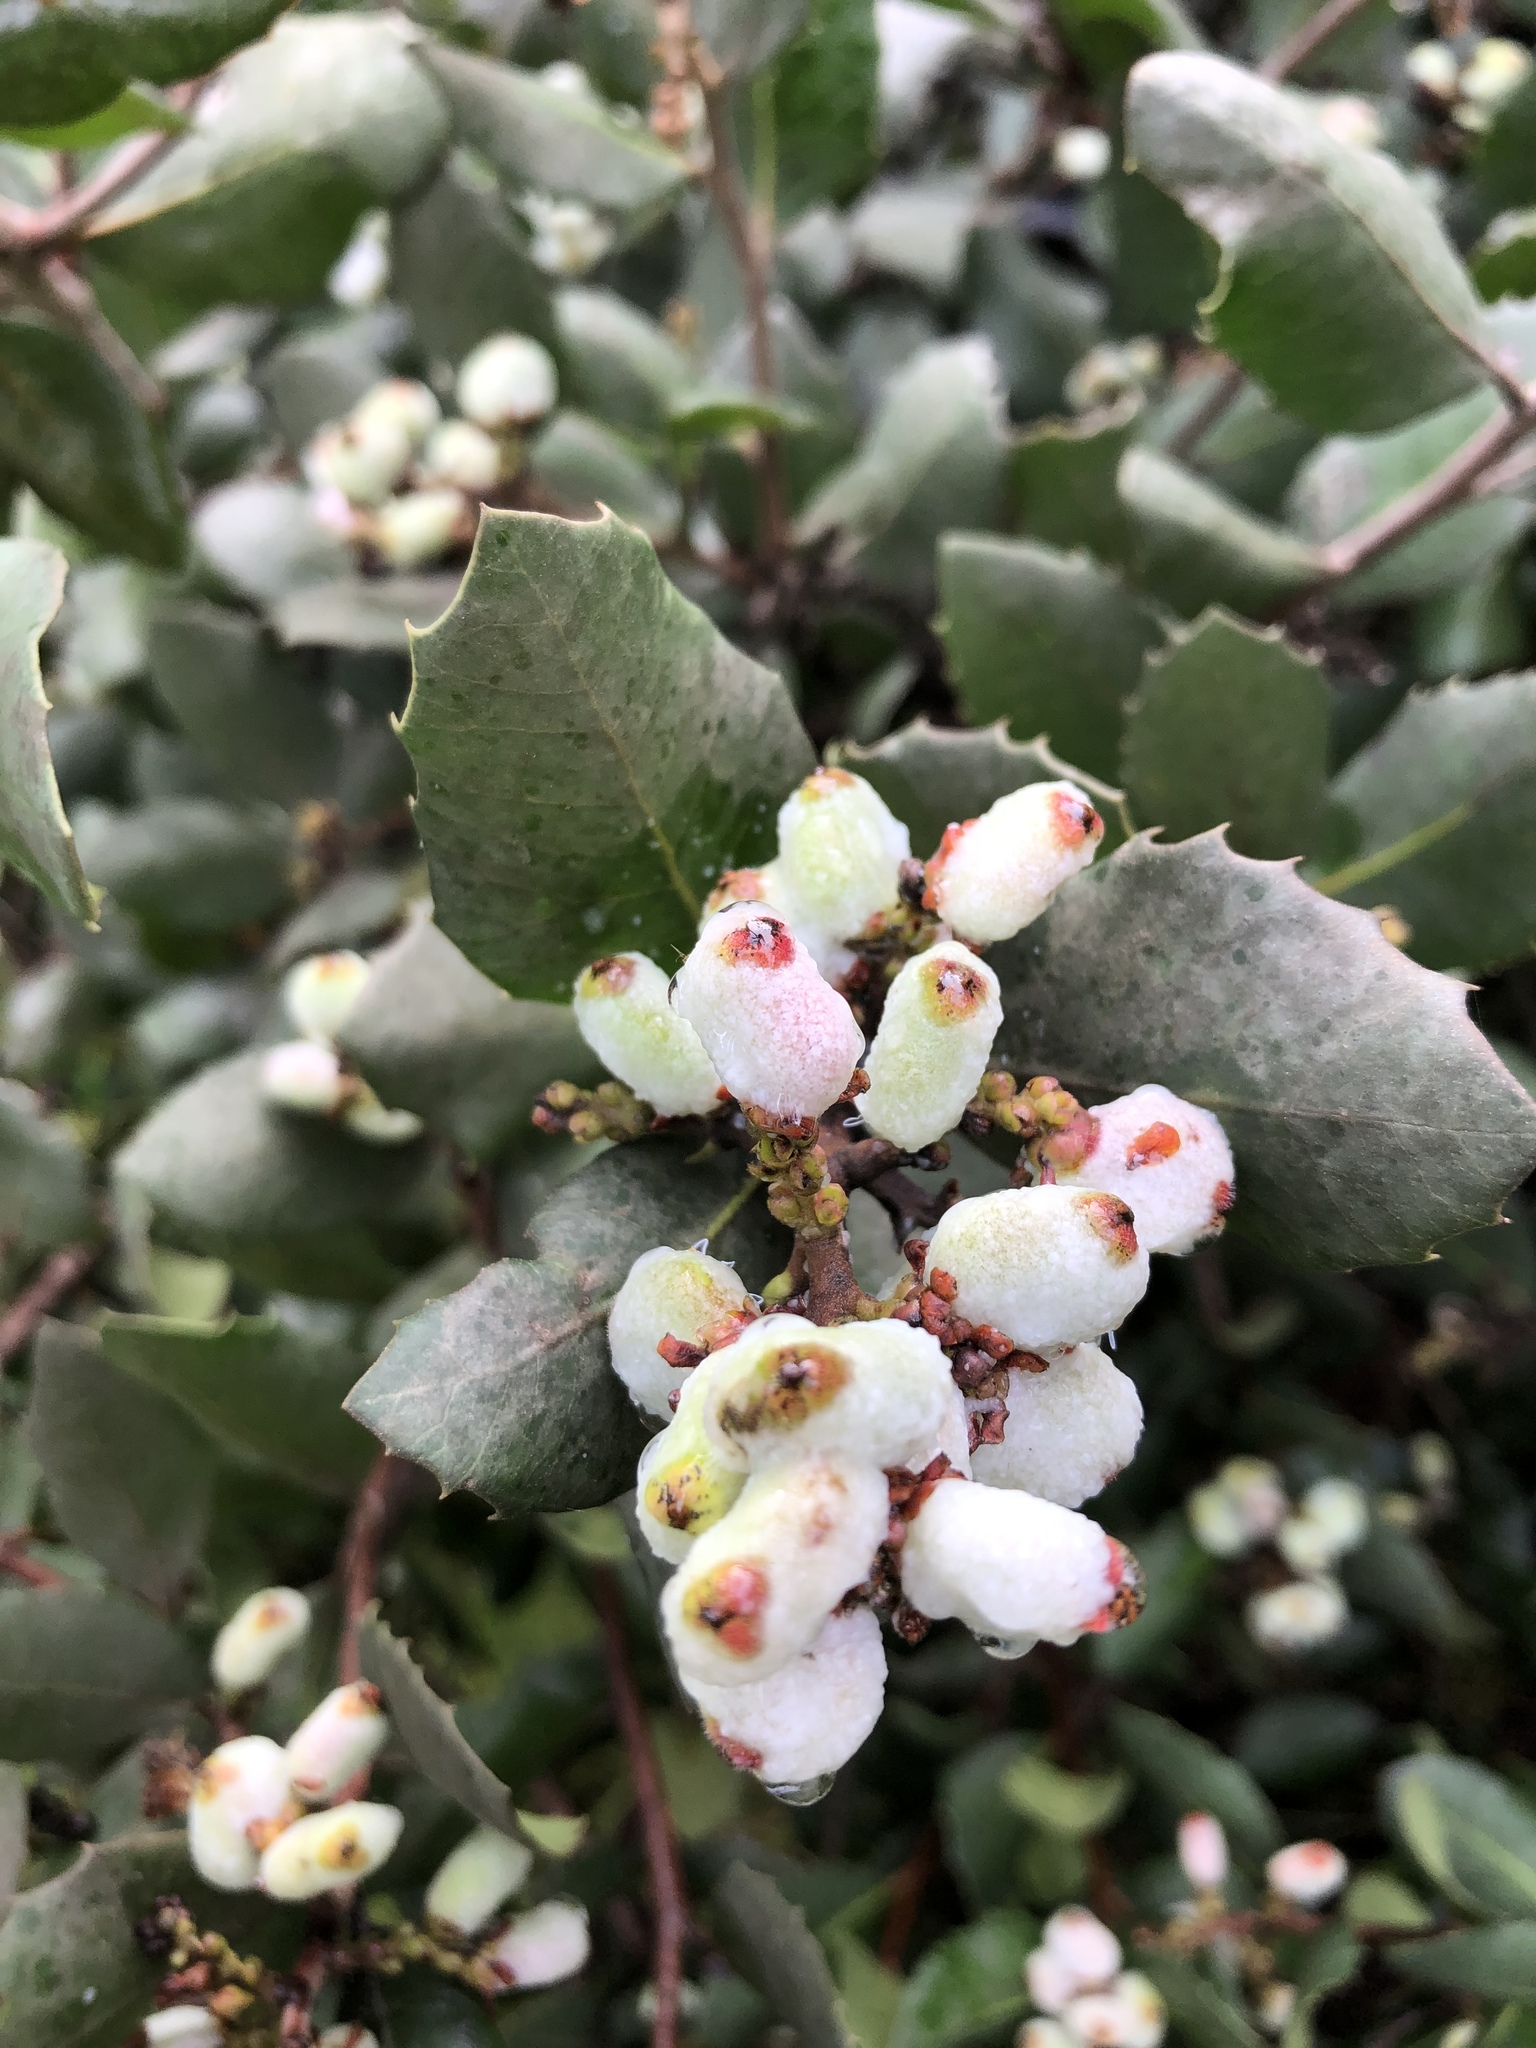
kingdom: Plantae
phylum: Tracheophyta
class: Magnoliopsida
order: Sapindales
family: Anacardiaceae
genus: Rhus
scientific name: Rhus integrifolia
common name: Lemonade sumac
